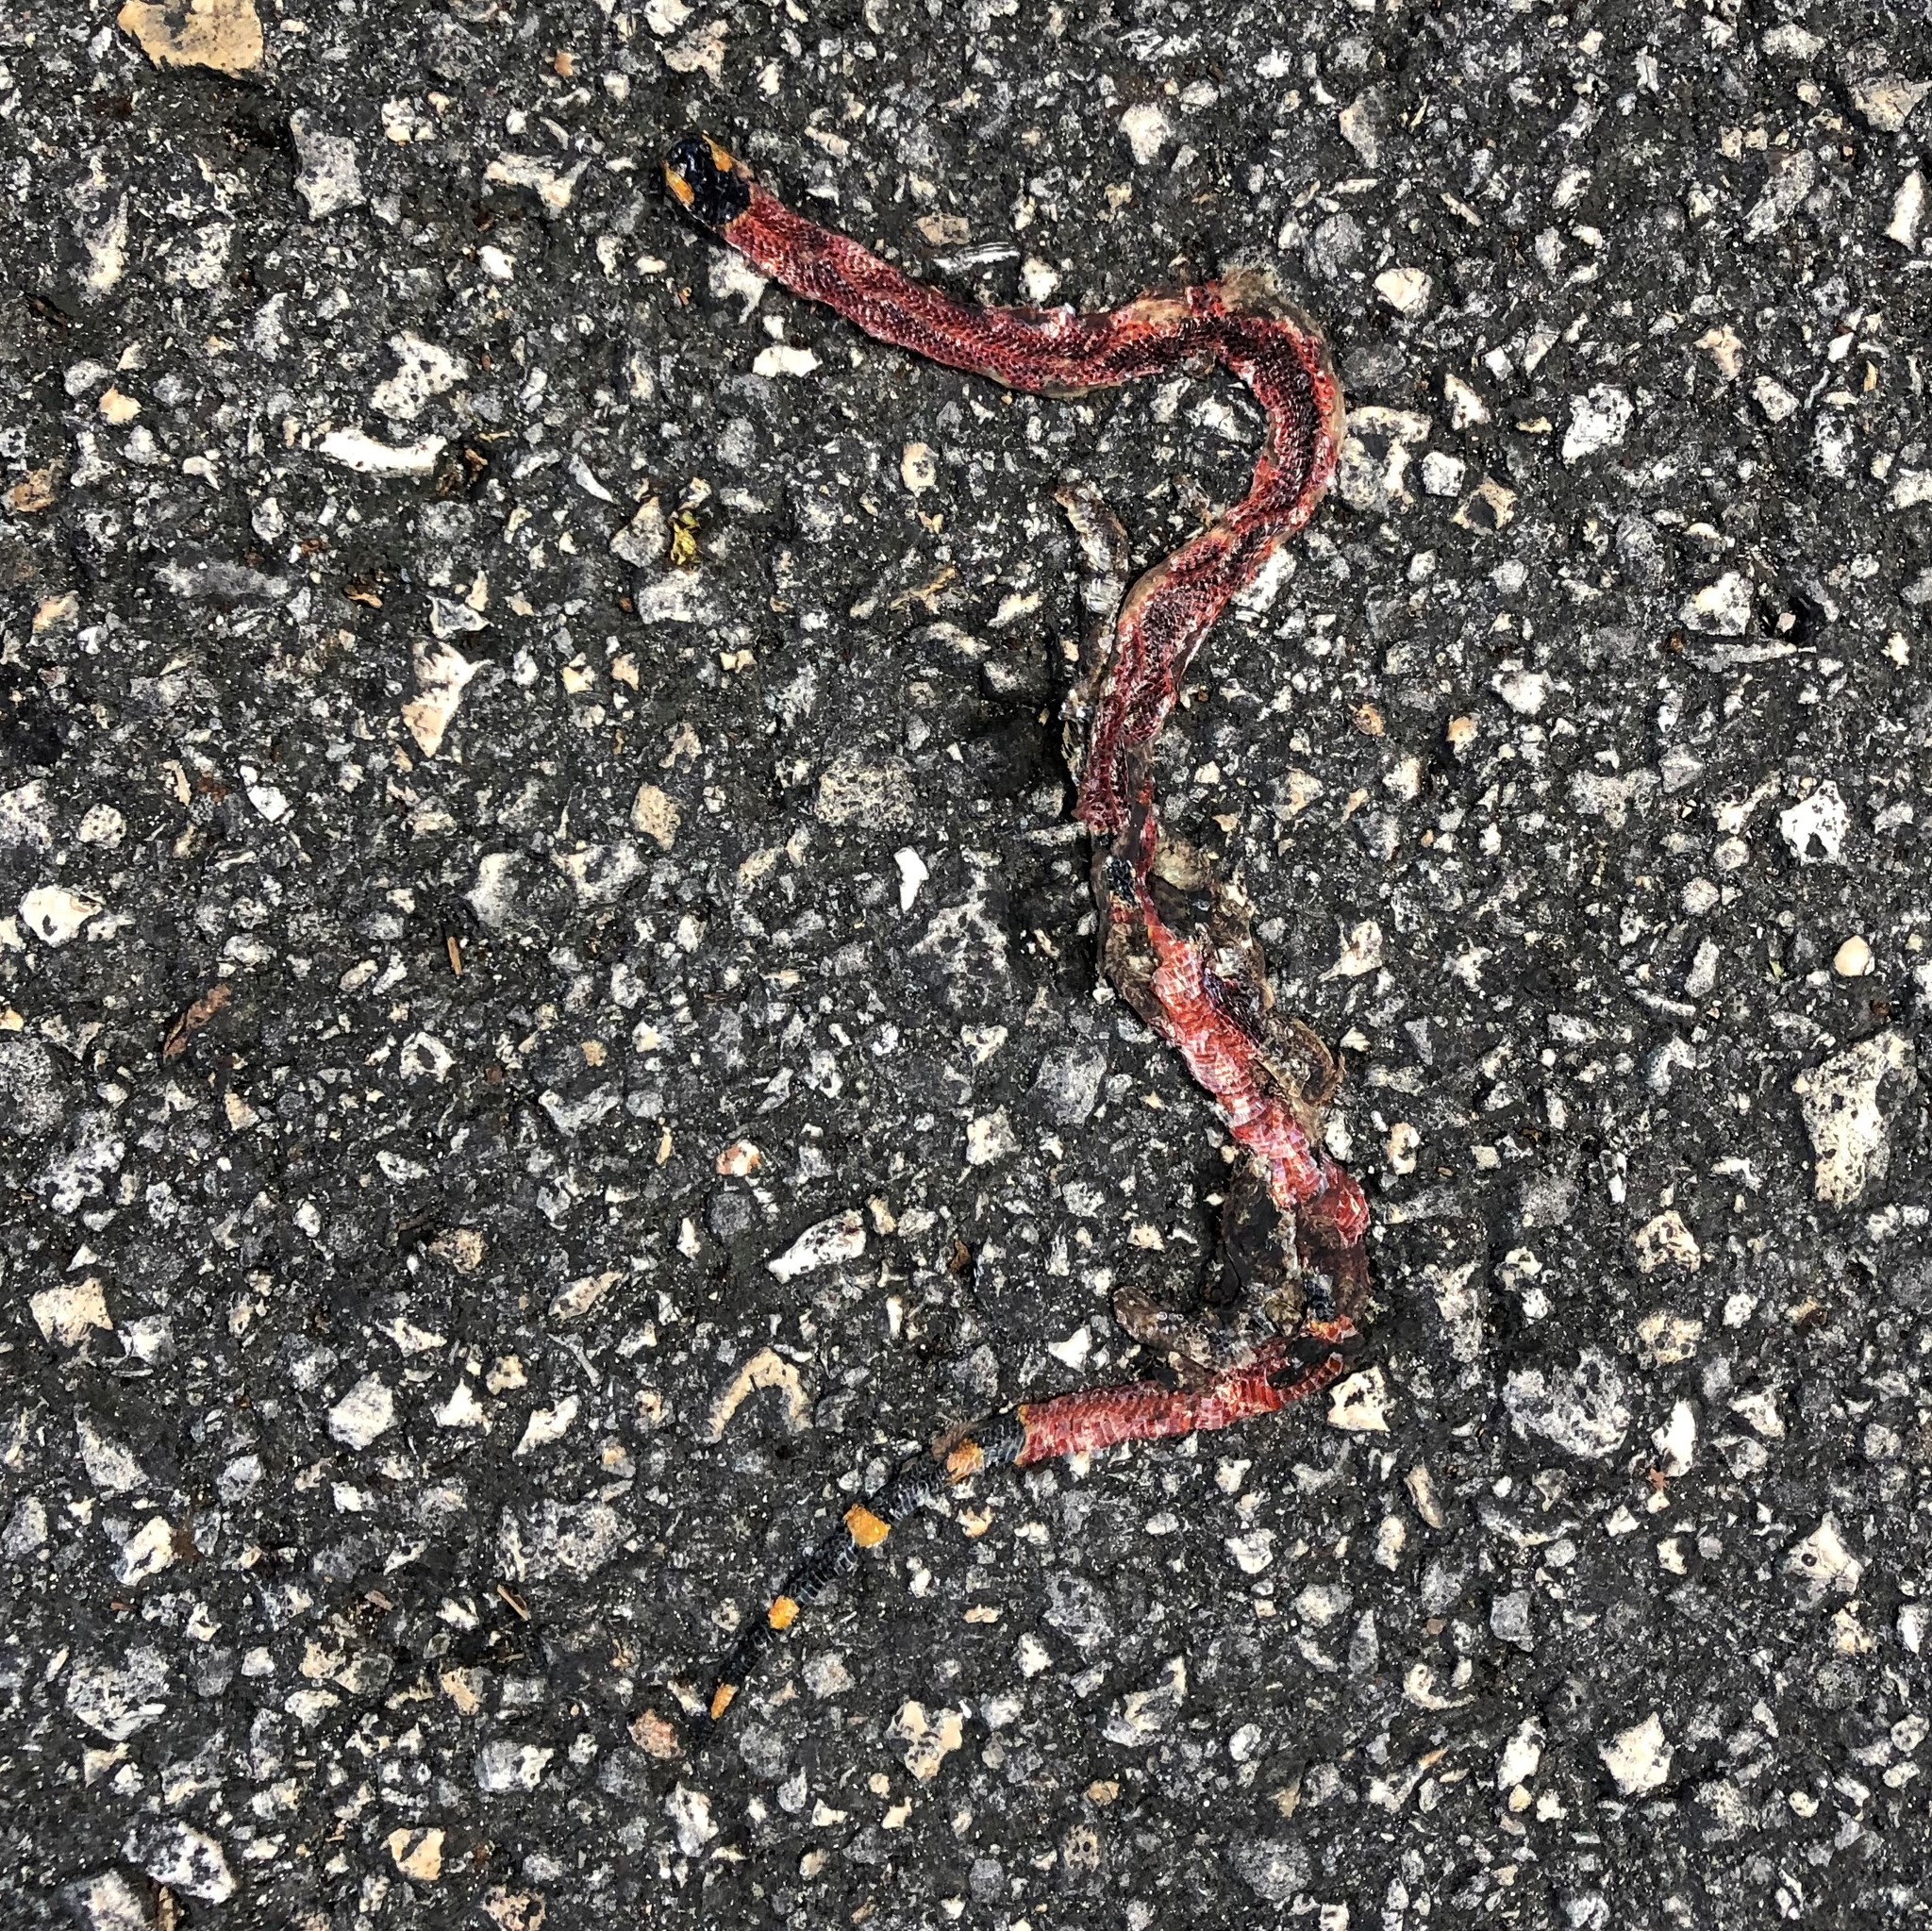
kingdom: Animalia
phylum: Chordata
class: Squamata
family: Elapidae
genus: Micrurus
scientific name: Micrurus diastema
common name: Diastema coral snake
